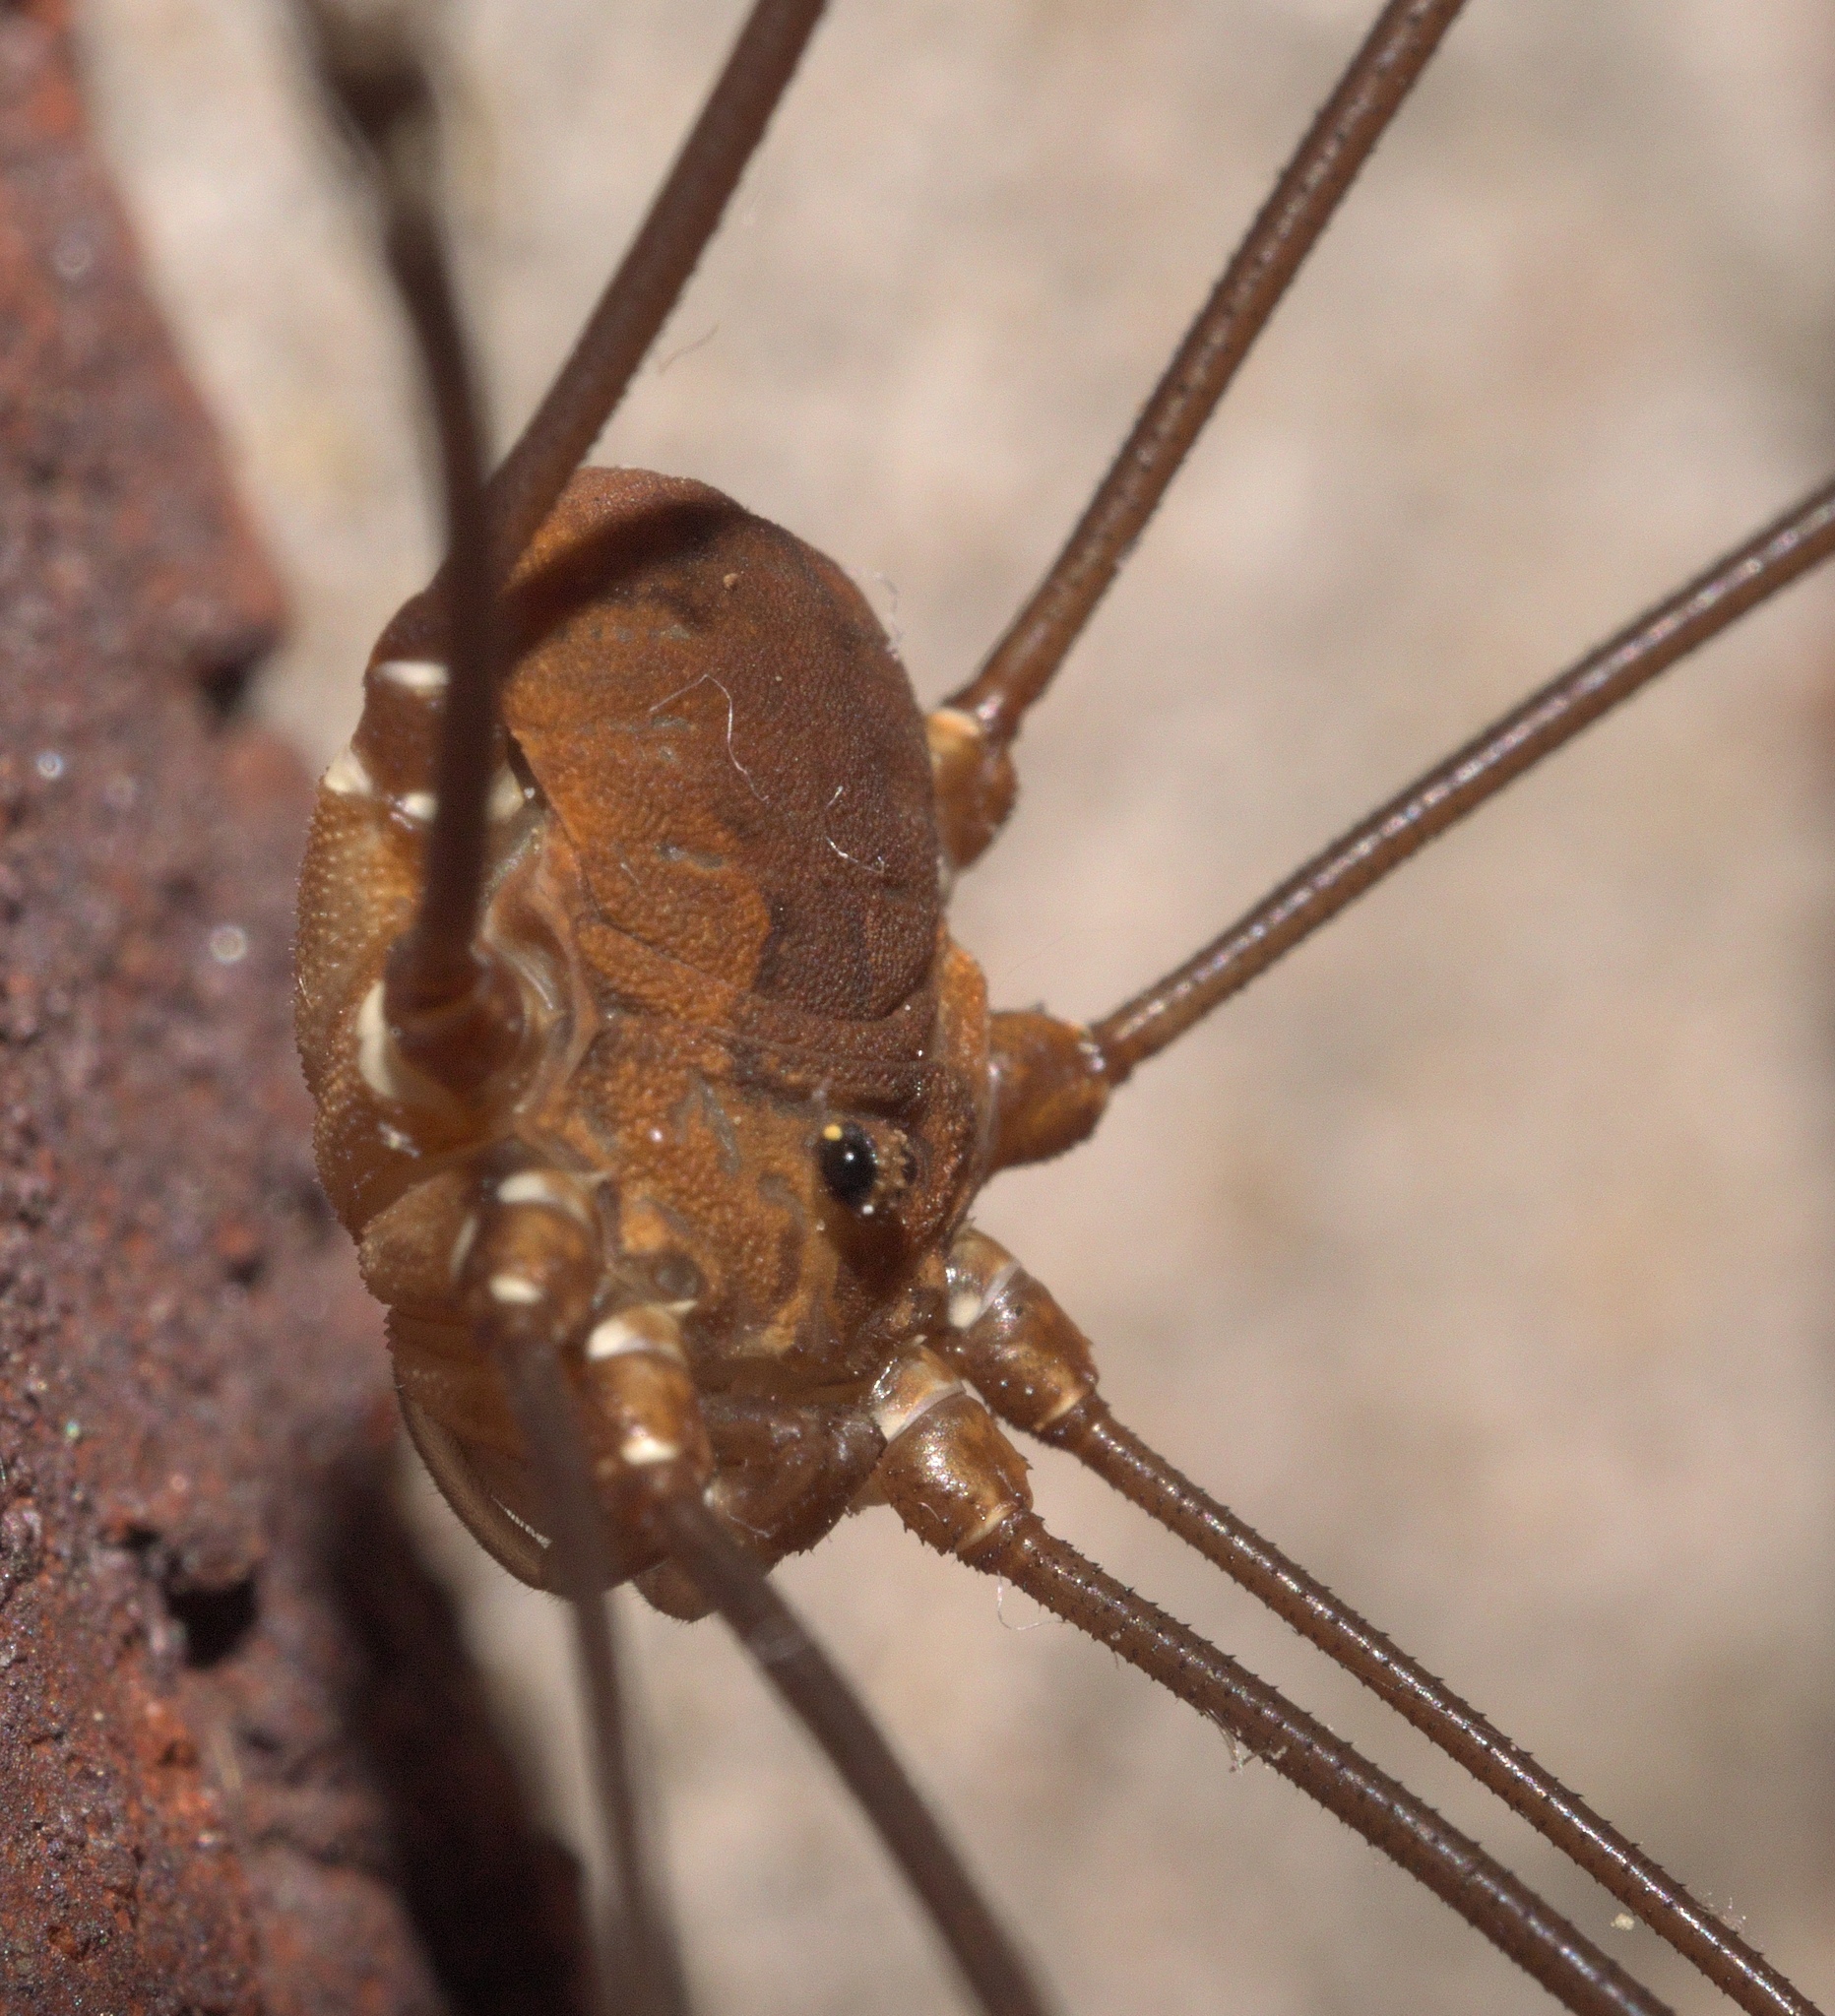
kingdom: Animalia
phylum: Arthropoda
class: Arachnida
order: Opiliones
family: Sclerosomatidae
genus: Leiobunum
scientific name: Leiobunum flavum
